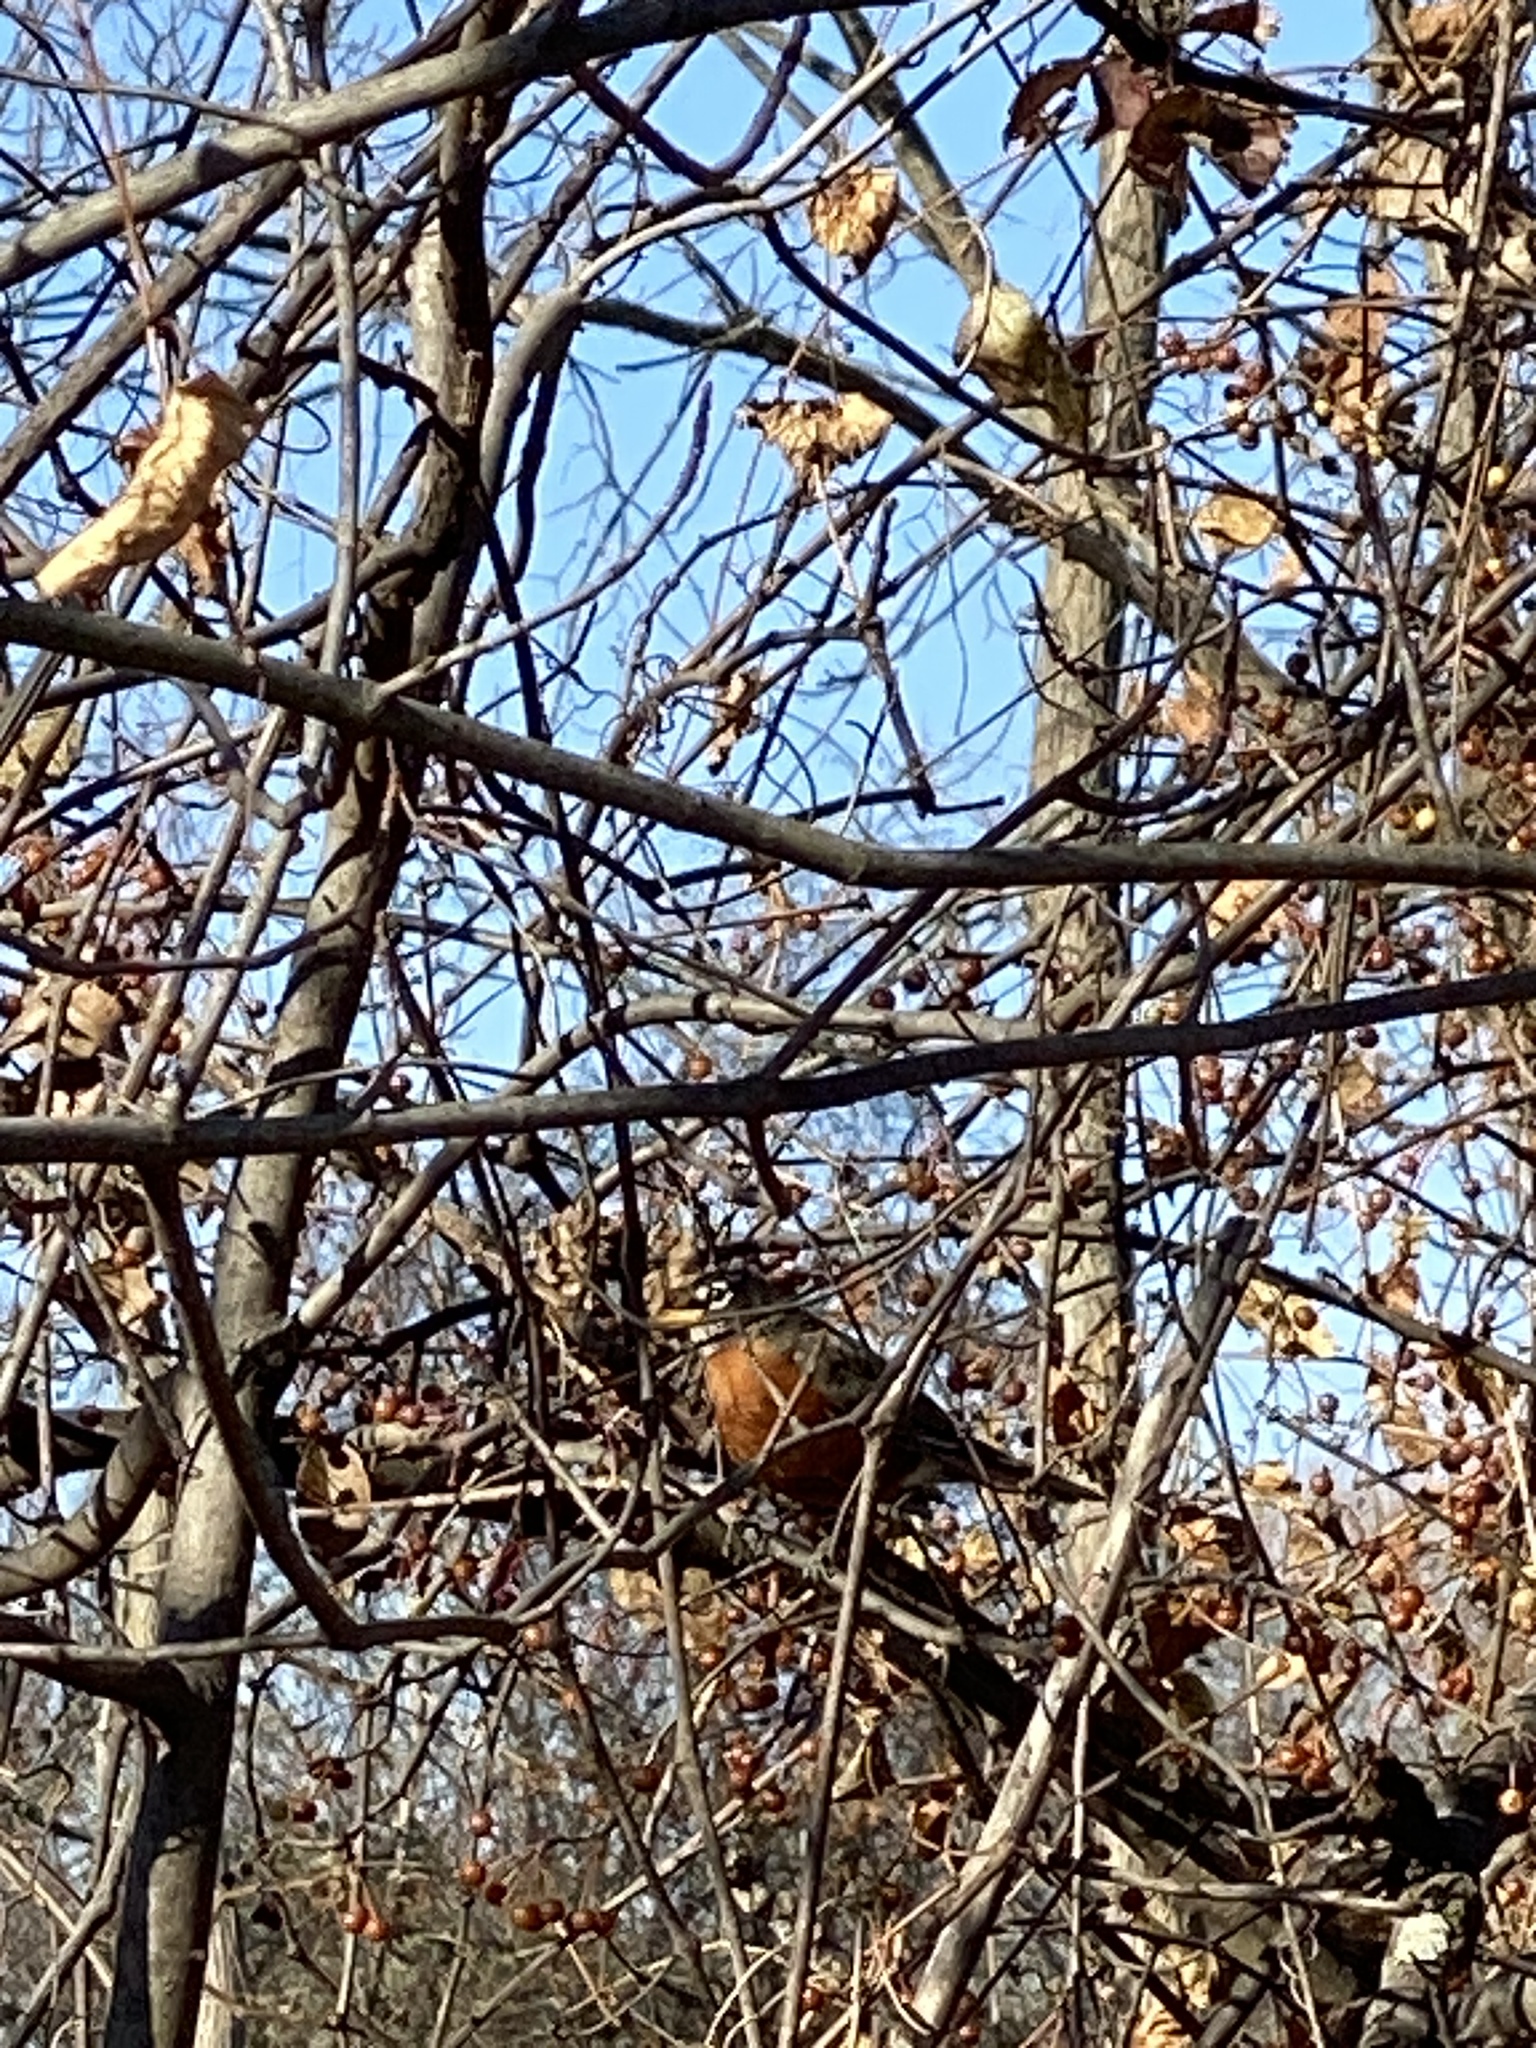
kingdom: Animalia
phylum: Chordata
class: Aves
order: Passeriformes
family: Turdidae
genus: Turdus
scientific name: Turdus migratorius
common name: American robin
